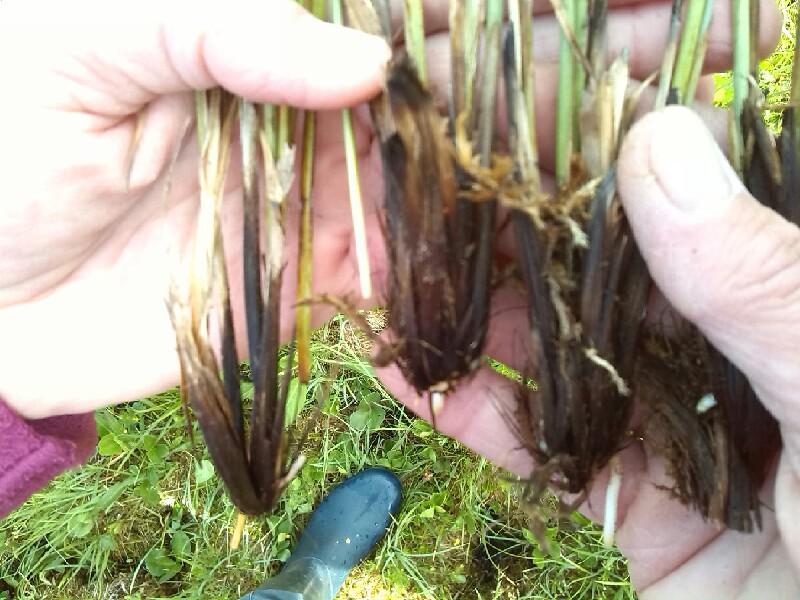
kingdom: Plantae
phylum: Tracheophyta
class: Liliopsida
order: Poales
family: Cyperaceae
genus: Carex
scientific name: Carex appropinquata
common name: Fibrous tussock-sedge
